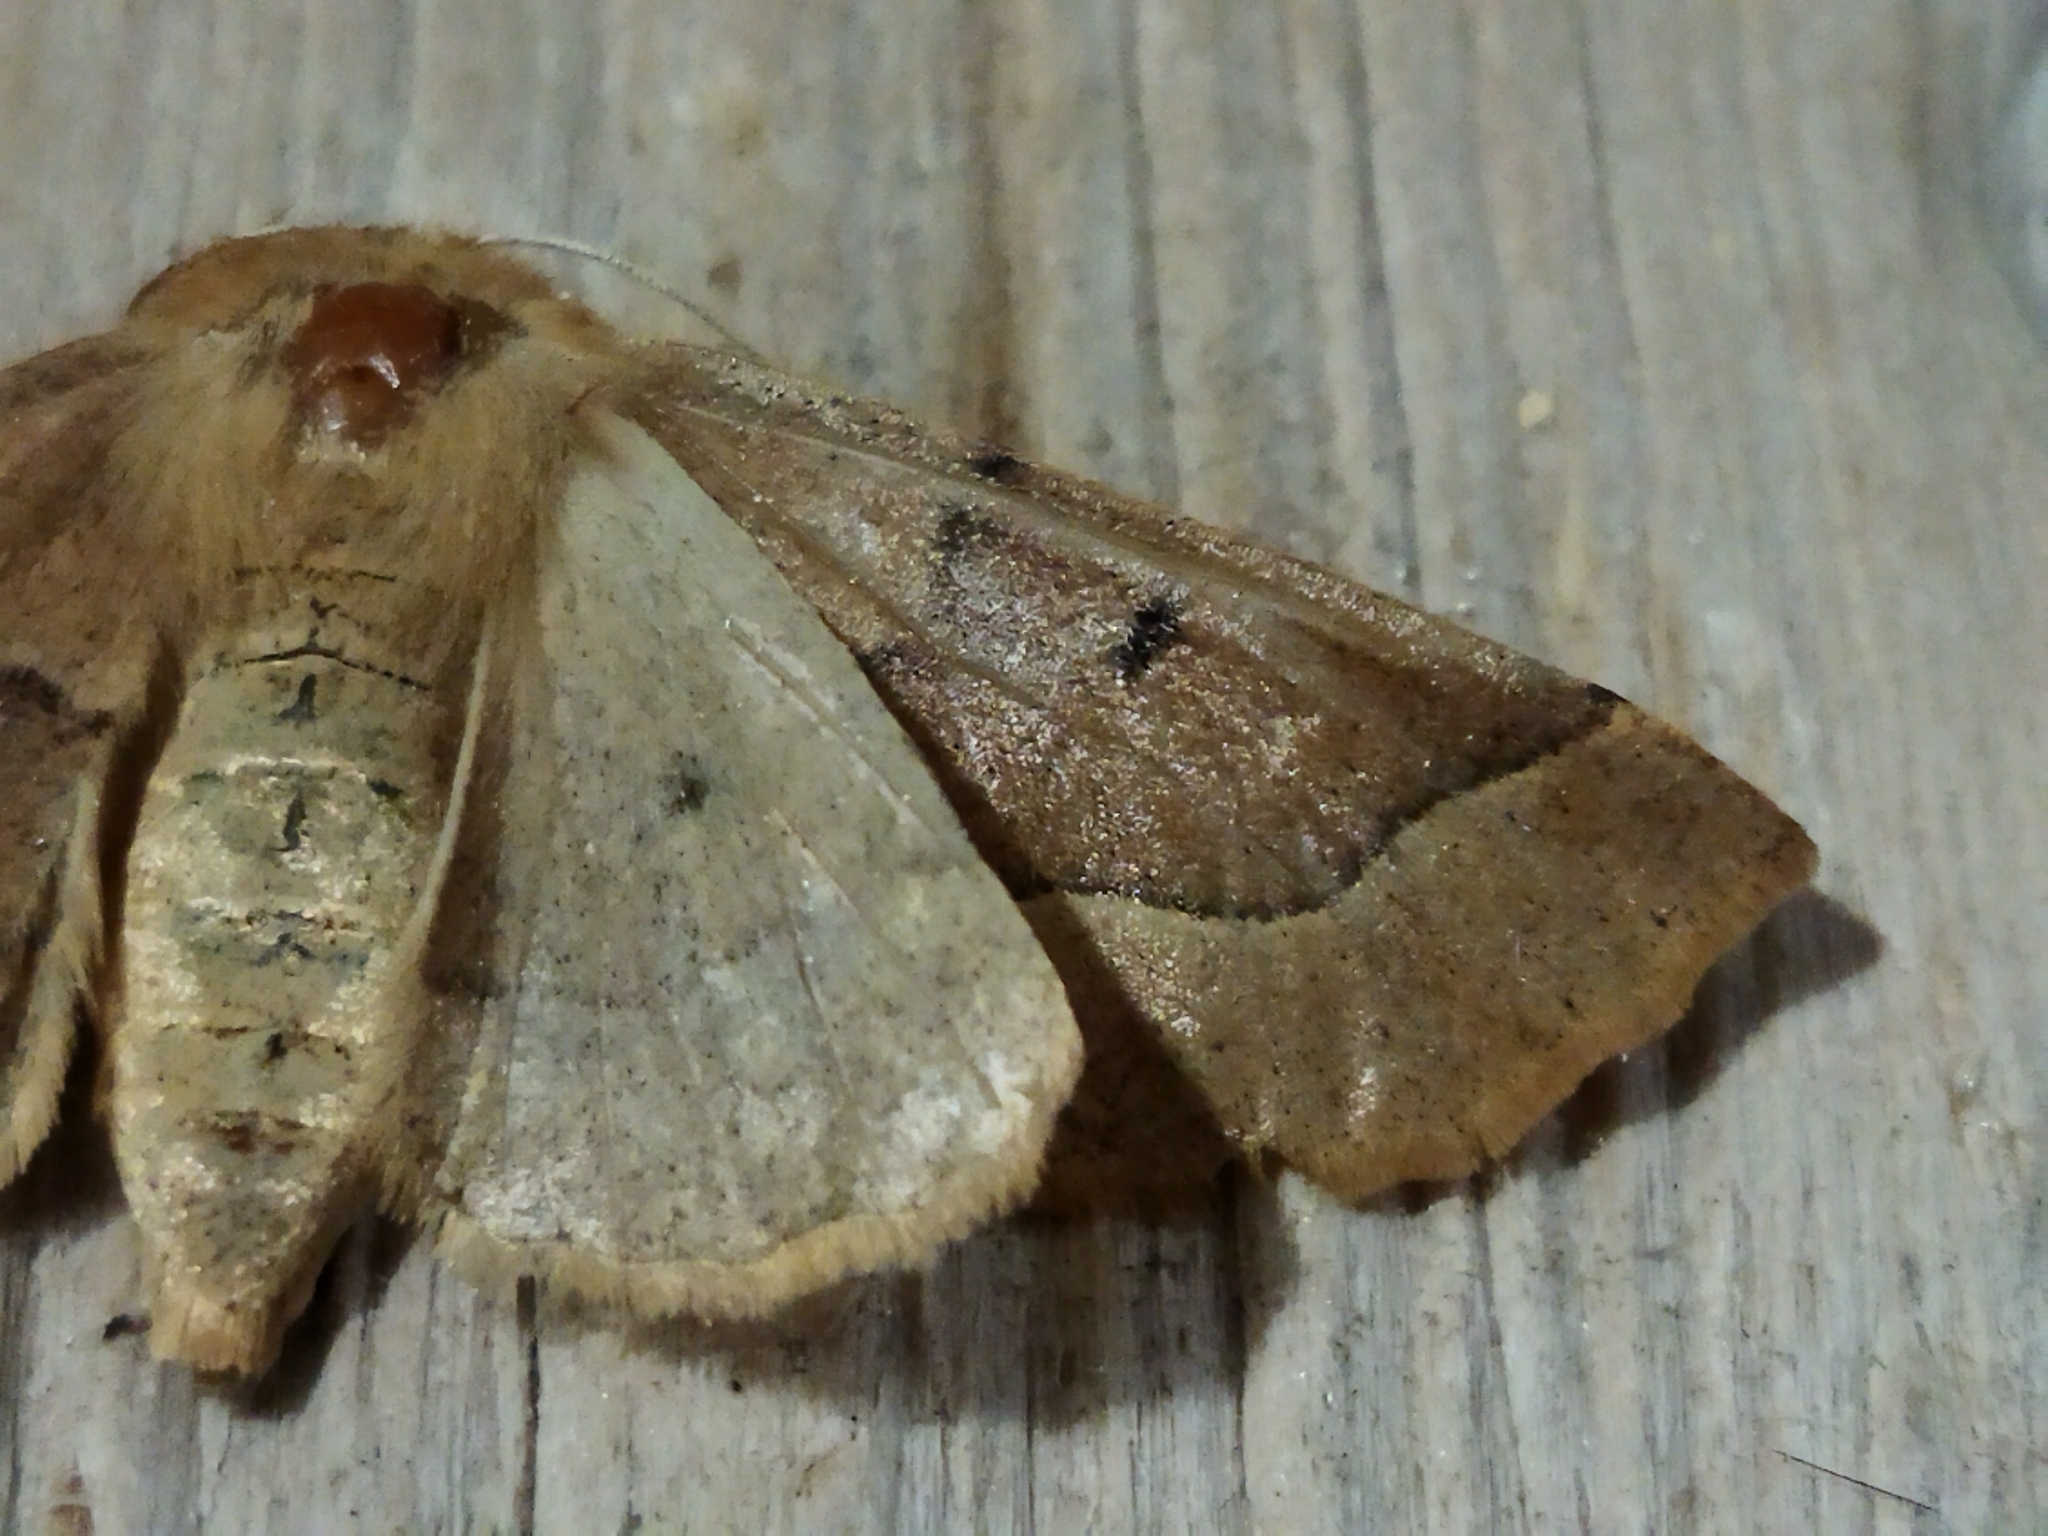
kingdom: Animalia
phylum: Arthropoda
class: Insecta
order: Lepidoptera
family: Geometridae
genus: Crocallis
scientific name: Crocallis tusciaria
